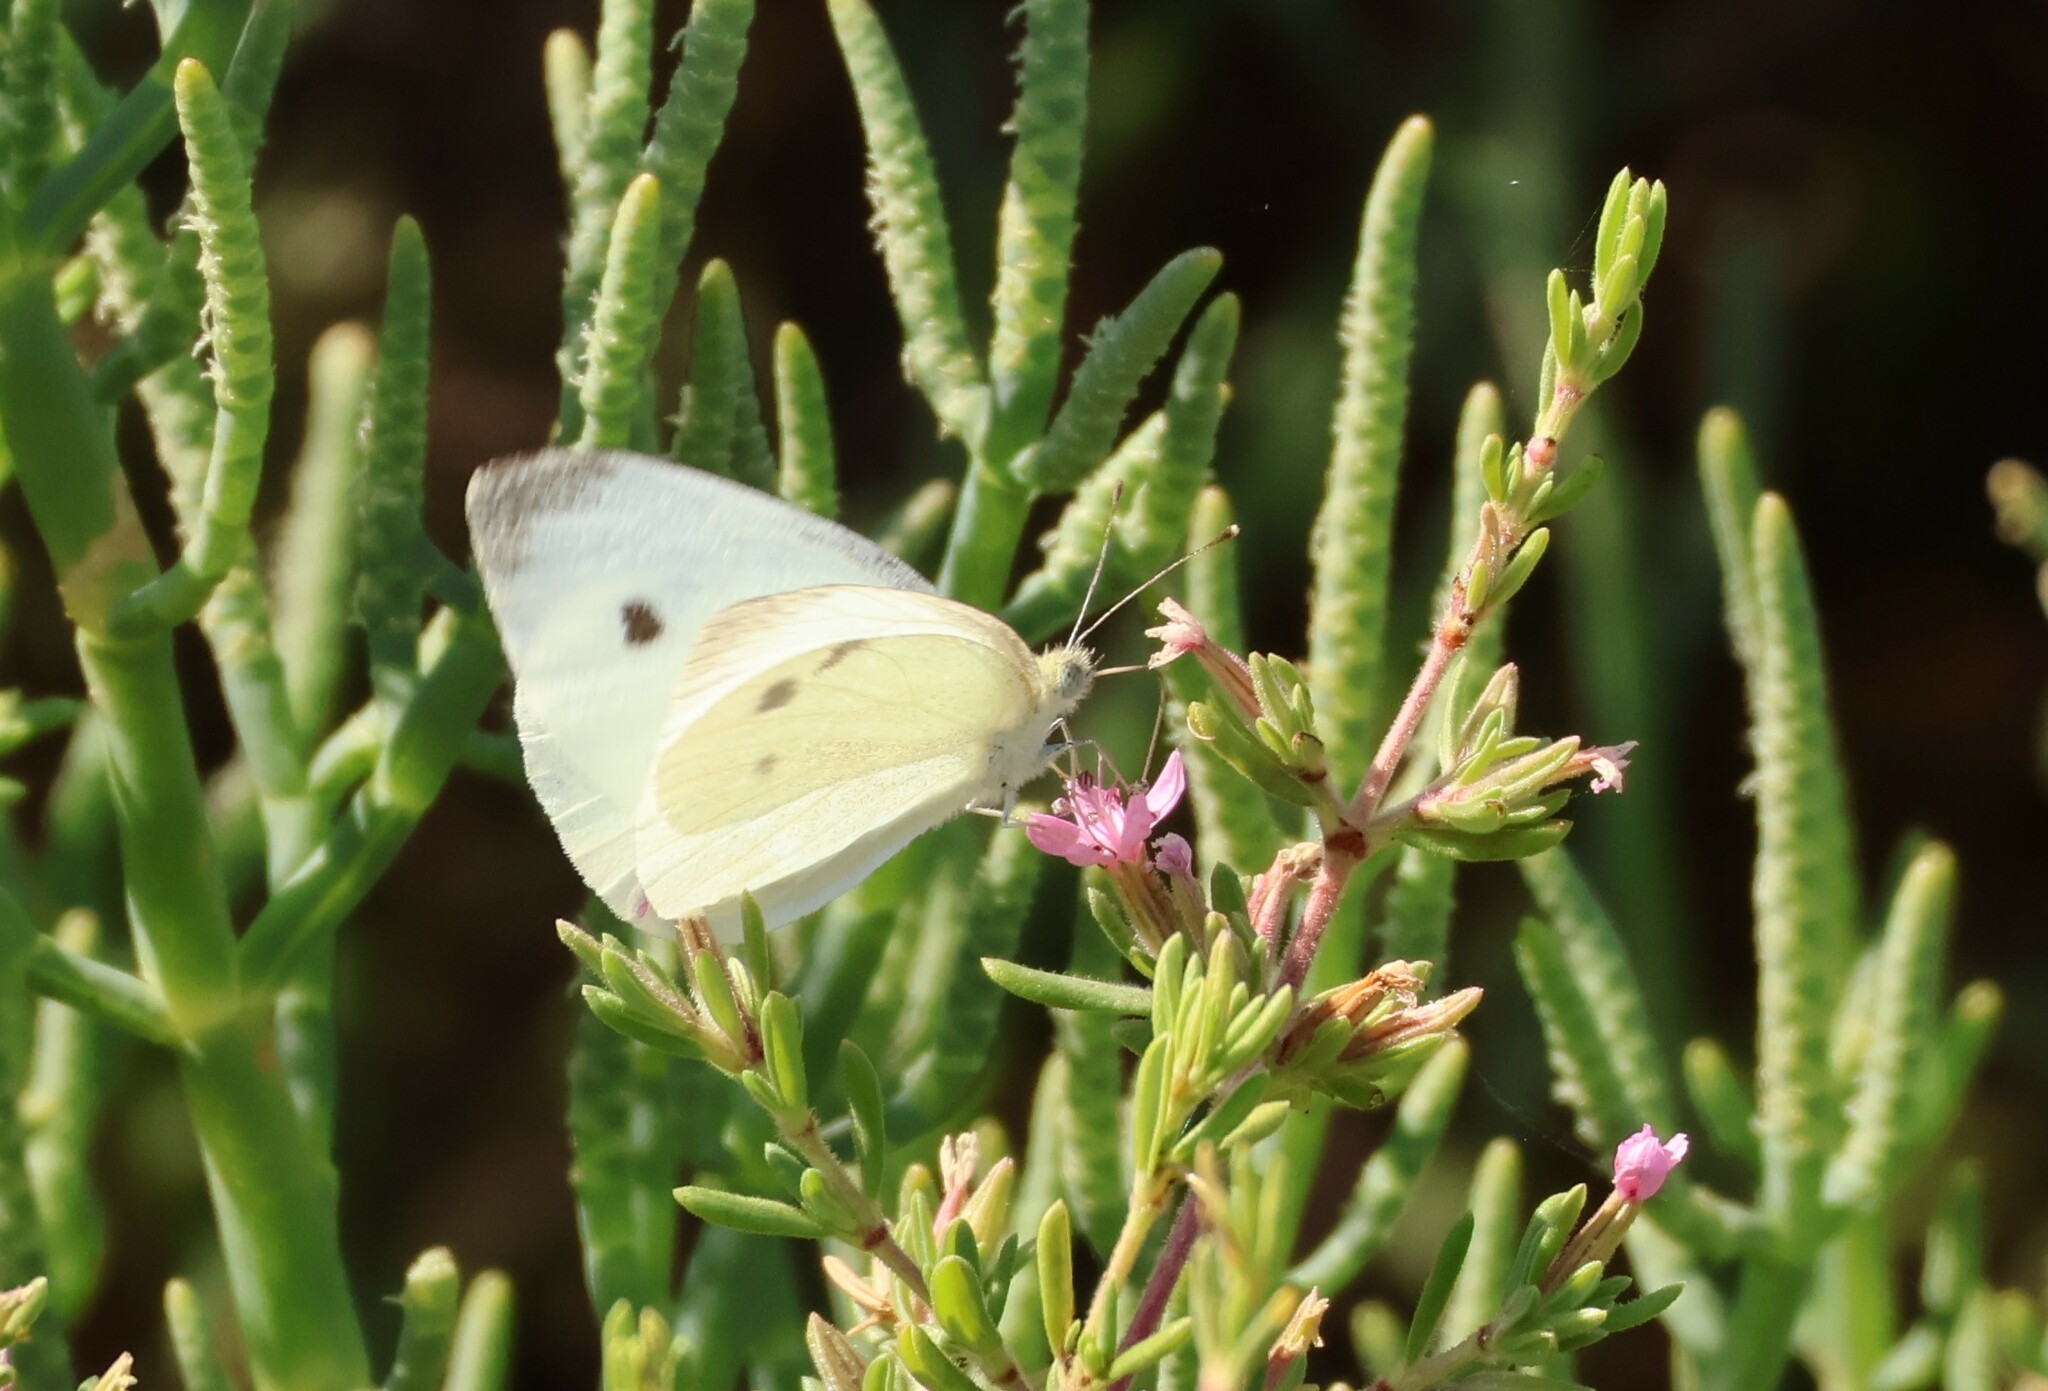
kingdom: Animalia
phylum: Arthropoda
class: Insecta
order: Lepidoptera
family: Pieridae
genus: Pieris
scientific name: Pieris rapae
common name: Small white
